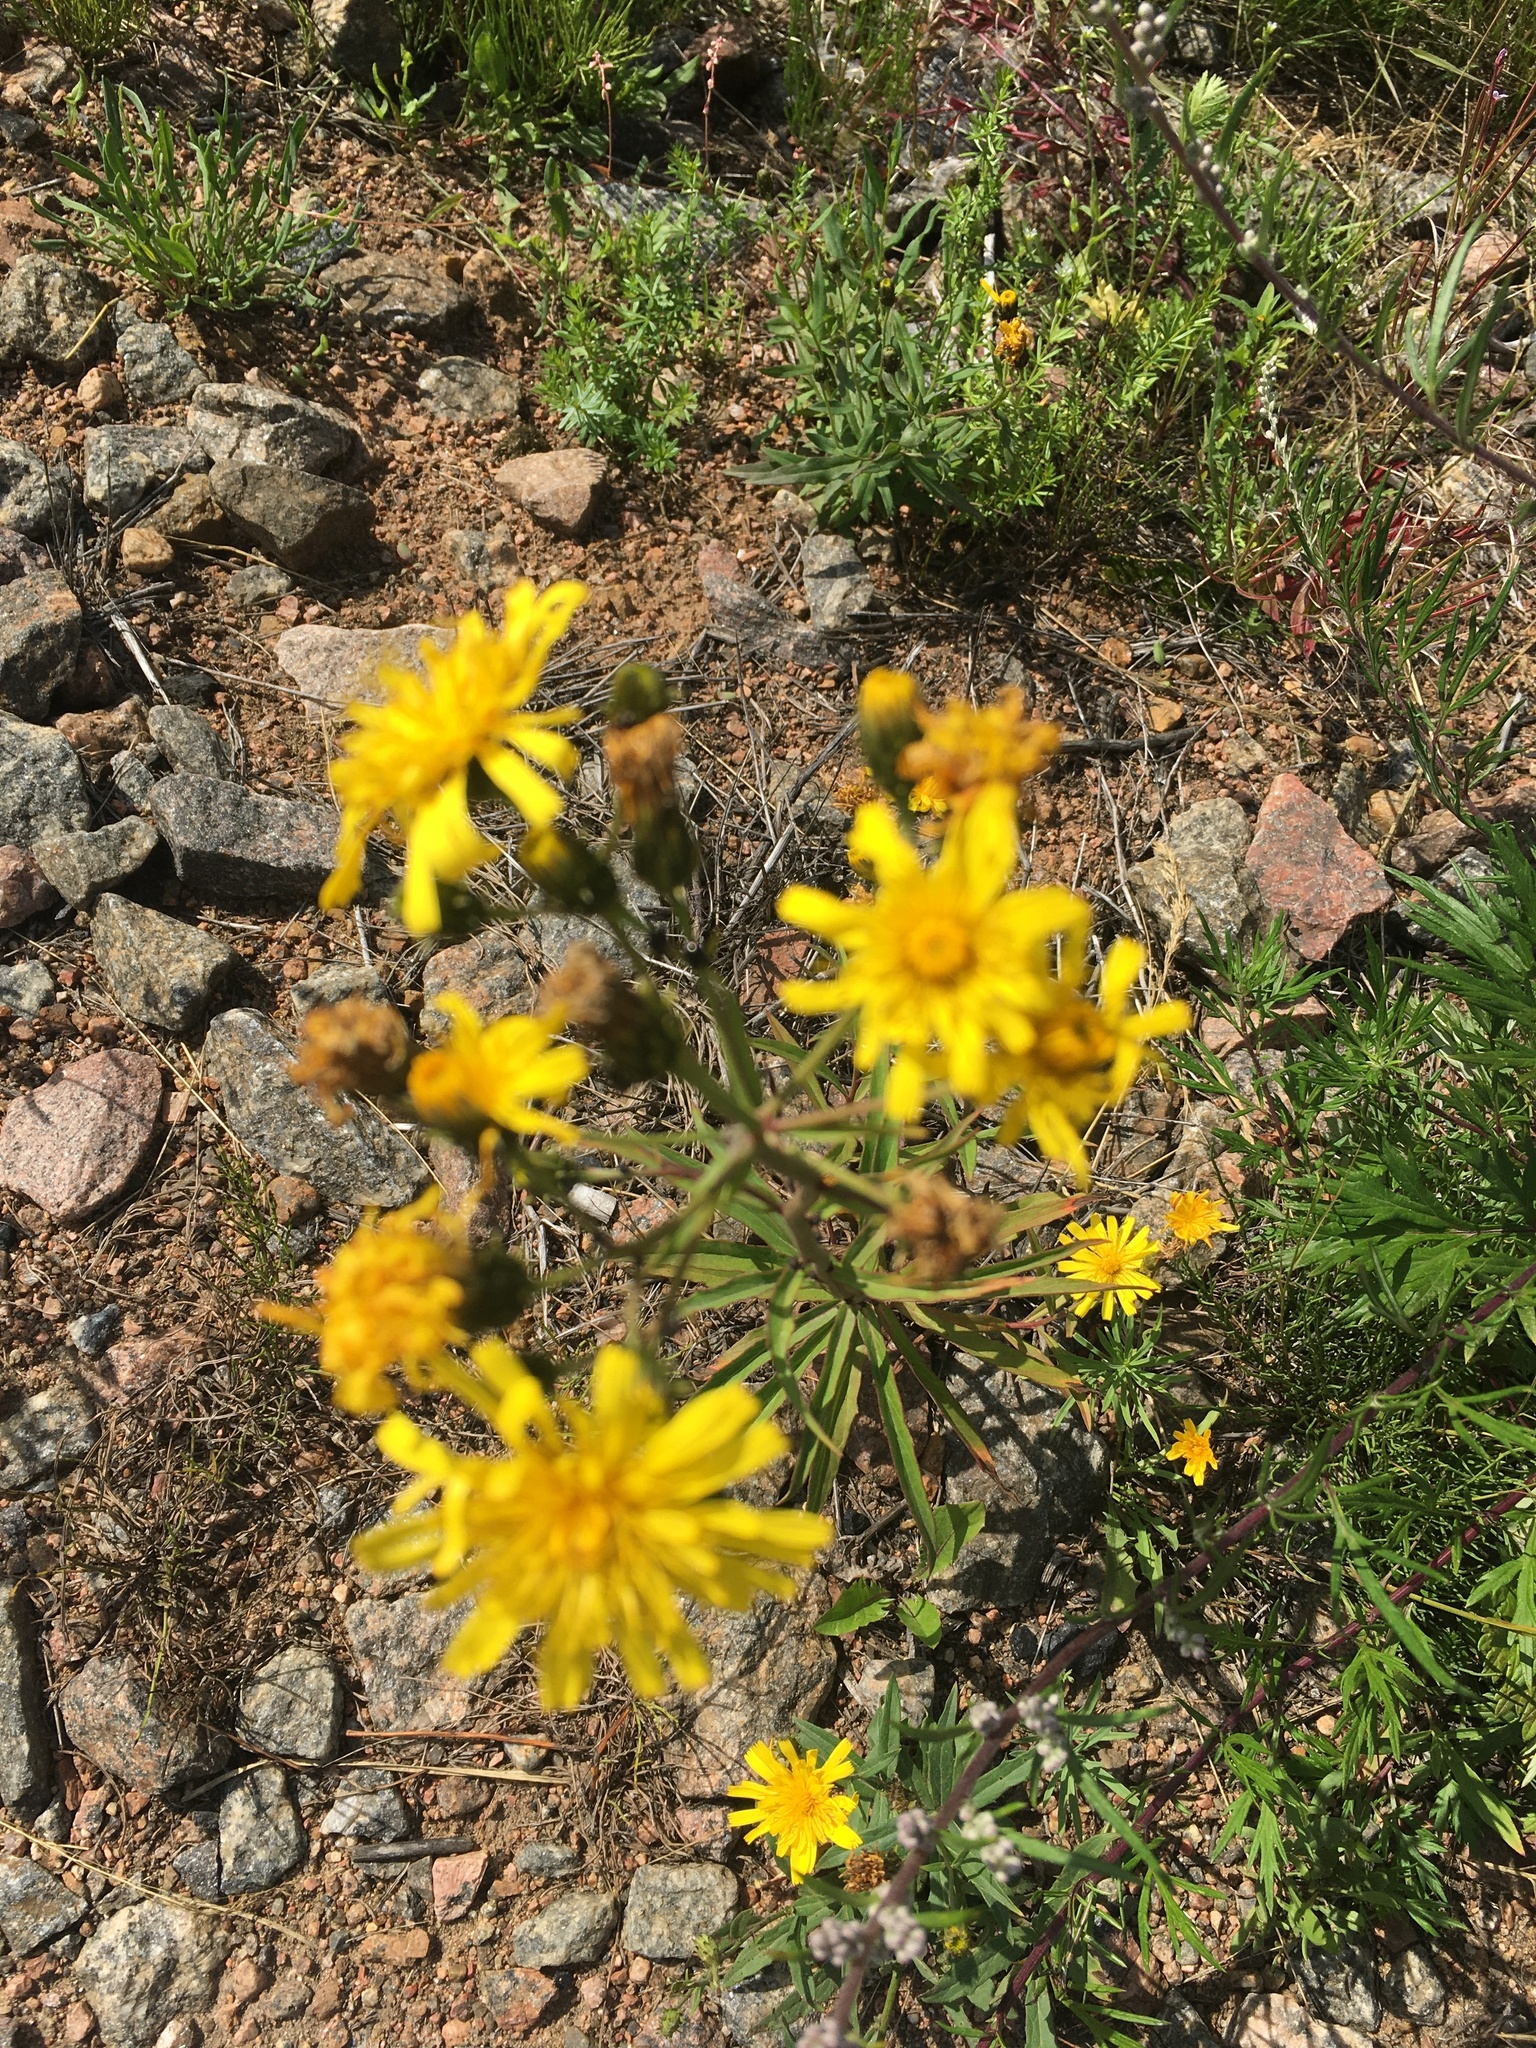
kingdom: Plantae
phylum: Tracheophyta
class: Magnoliopsida
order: Asterales
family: Asteraceae
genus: Hieracium
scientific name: Hieracium umbellatum
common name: Northern hawkweed
